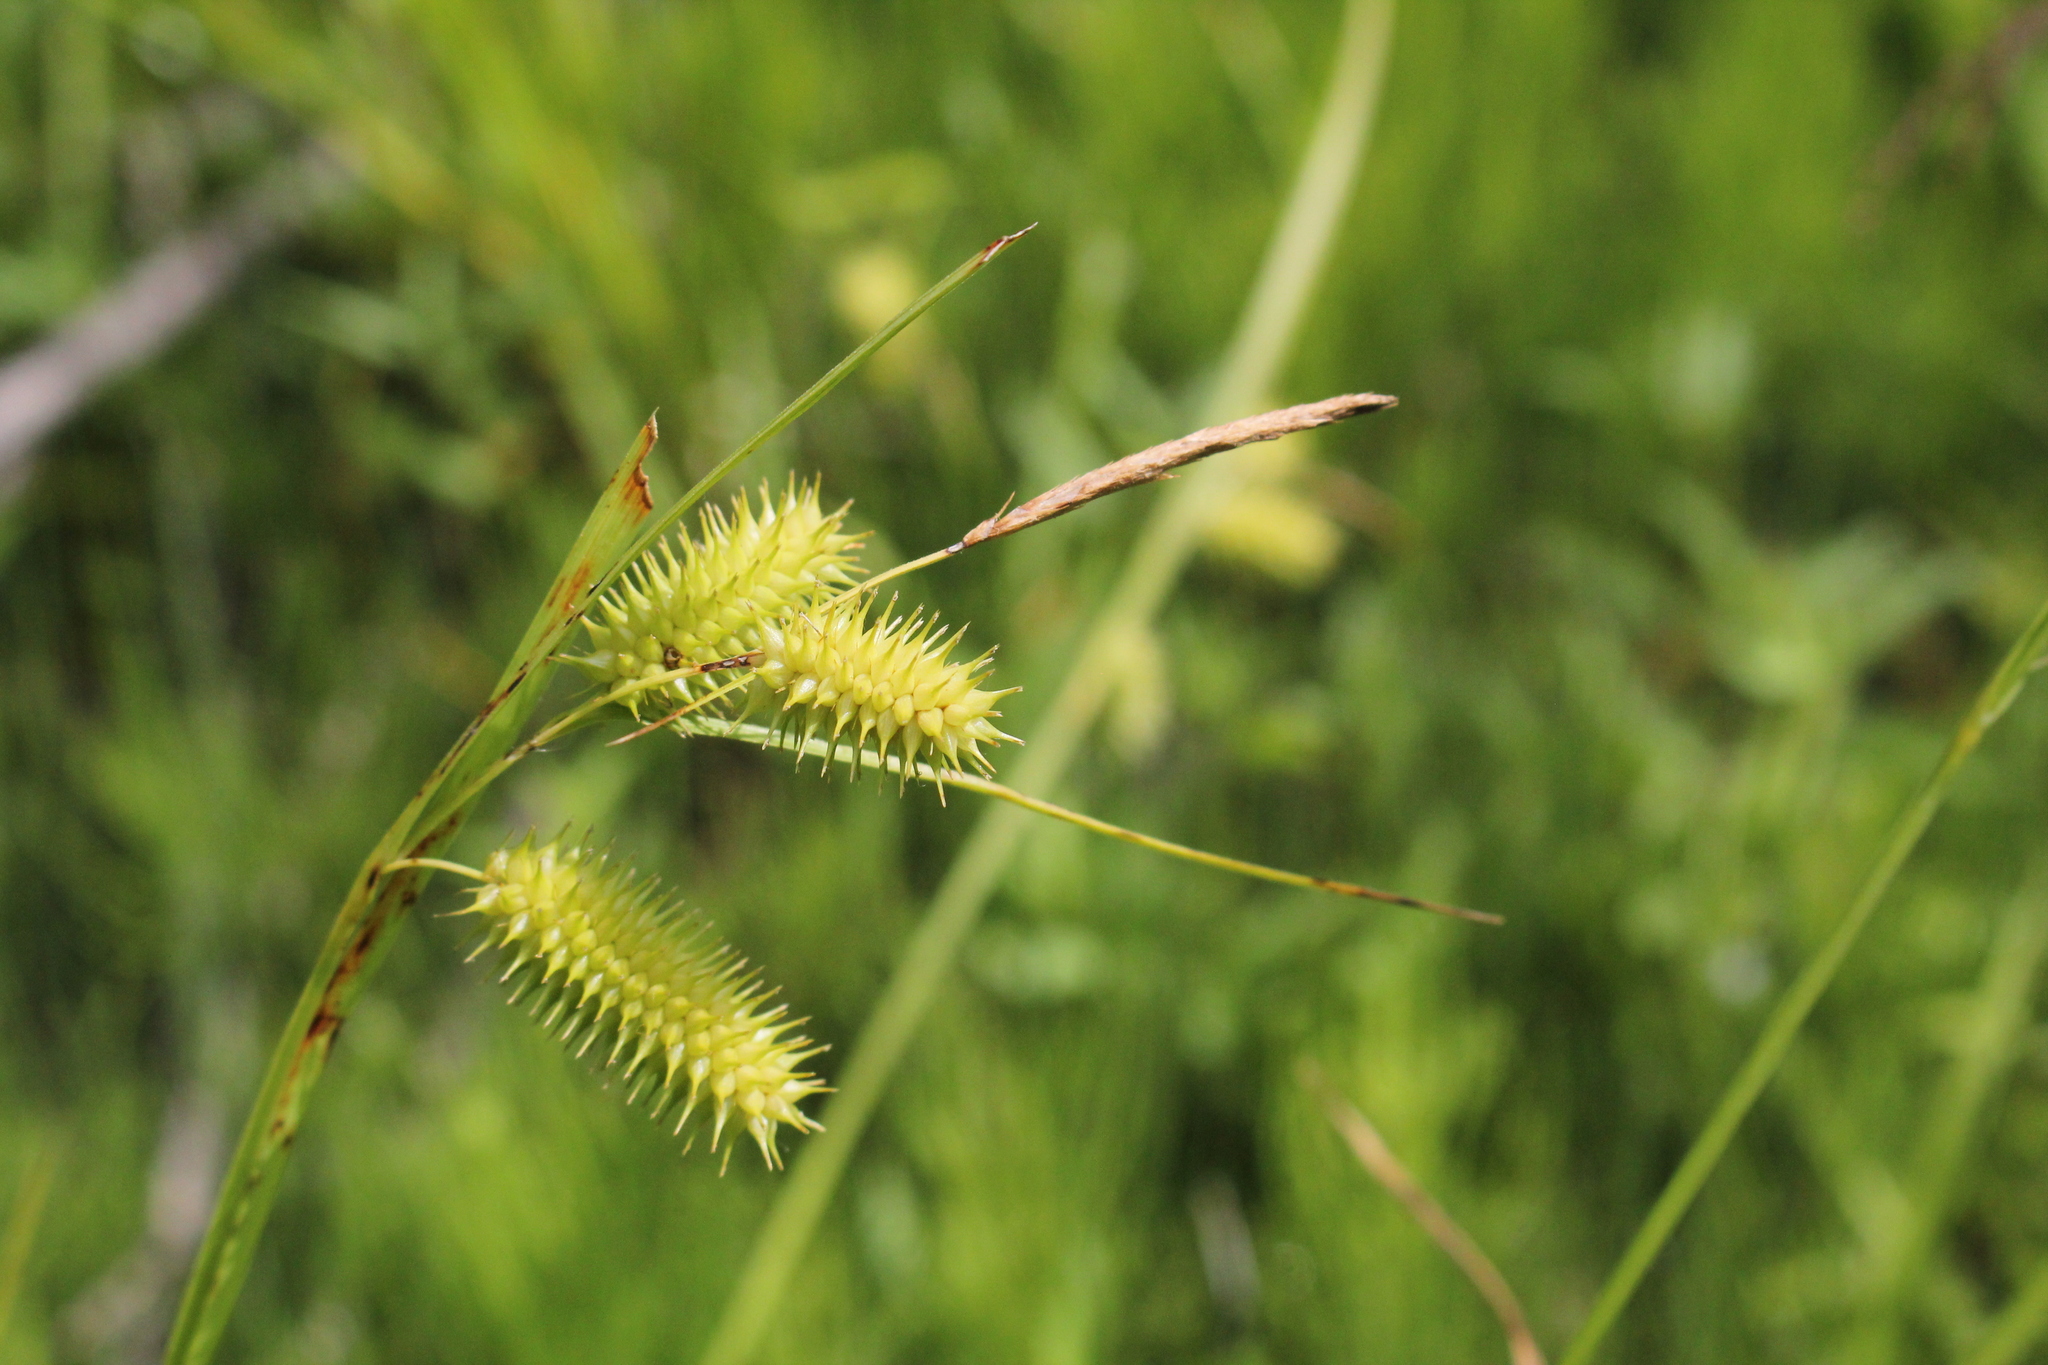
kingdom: Plantae
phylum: Tracheophyta
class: Liliopsida
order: Poales
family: Cyperaceae
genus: Carex
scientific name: Carex hystericina
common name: Bottlebrush sedge
